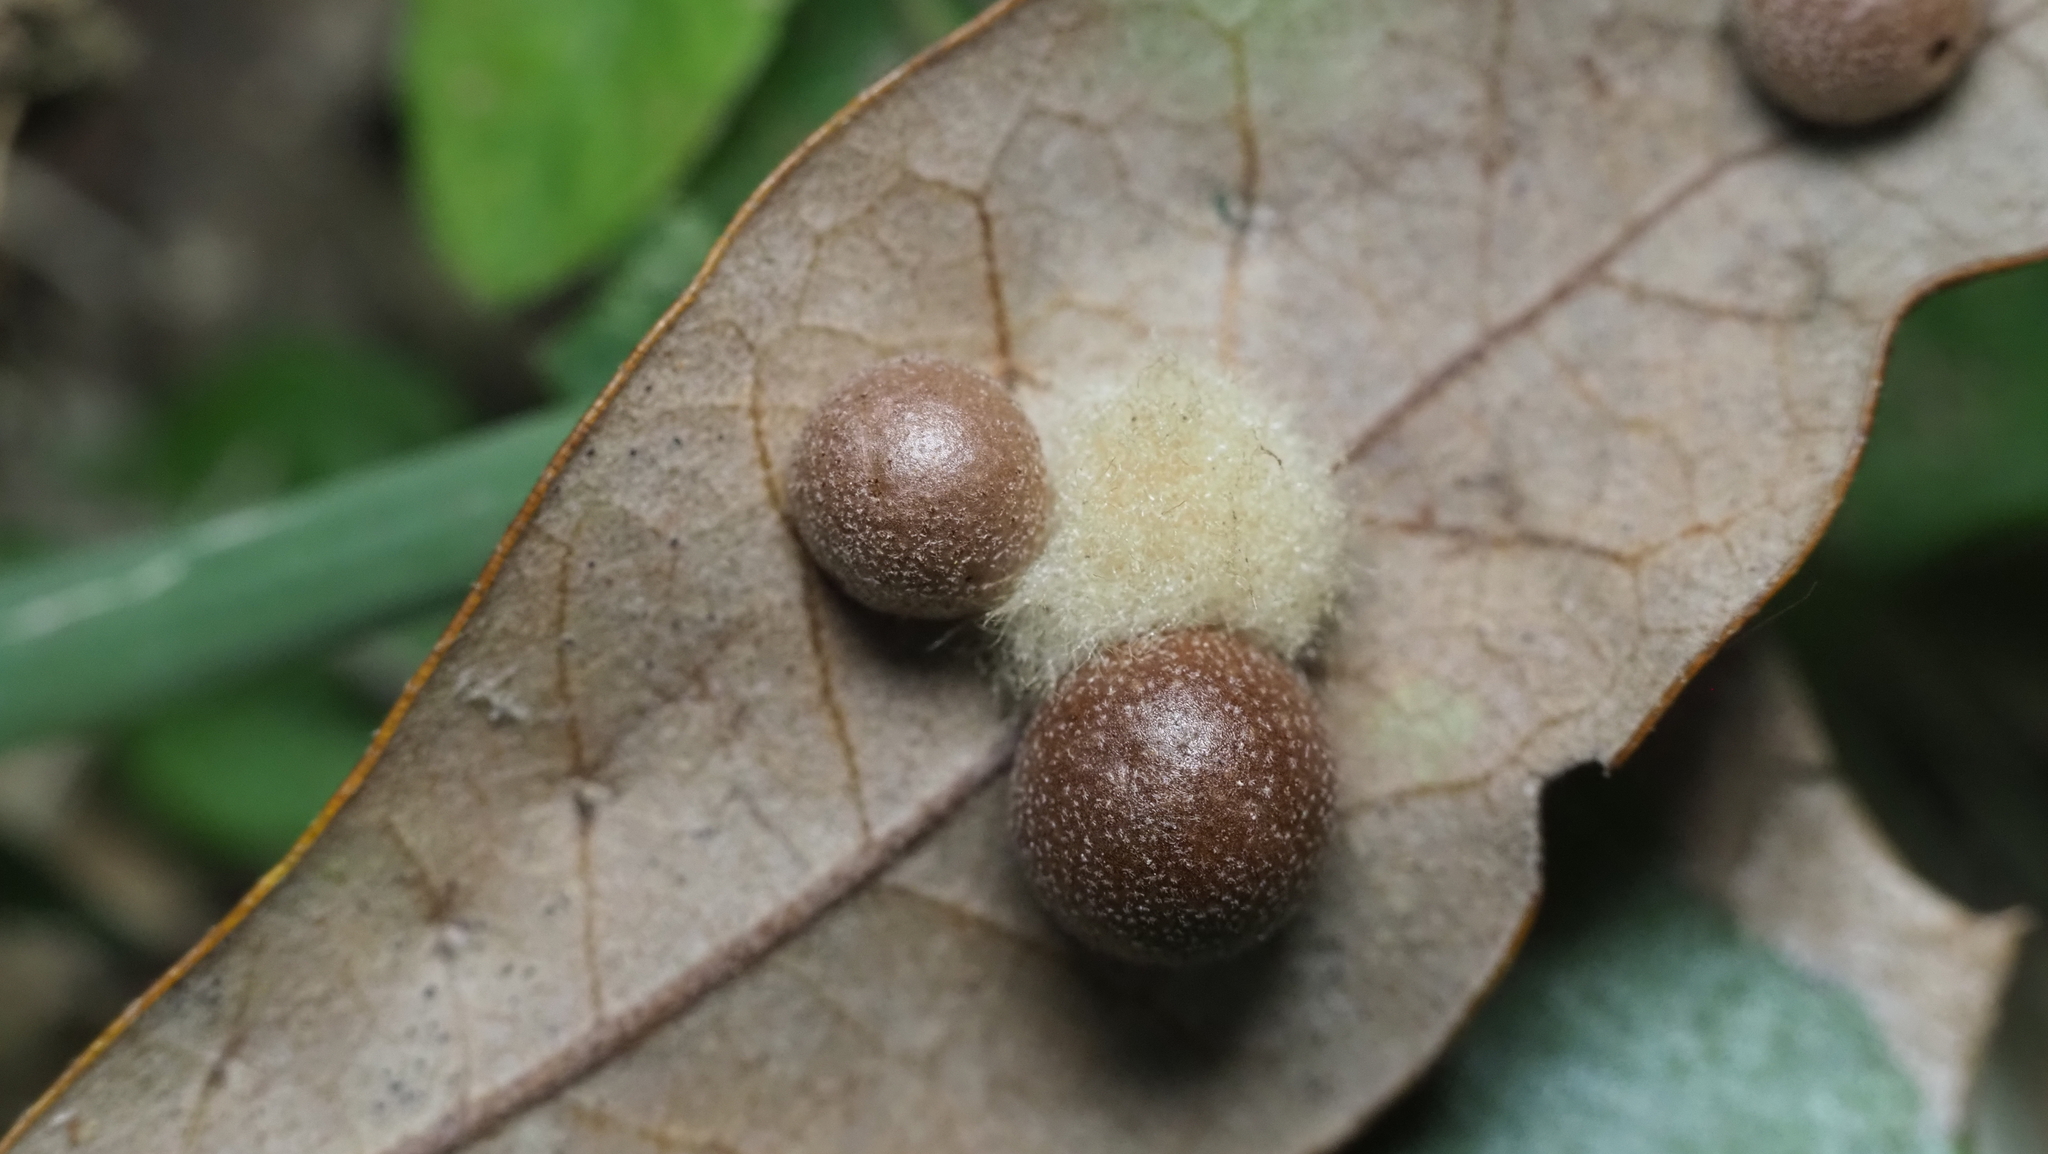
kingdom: Animalia
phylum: Arthropoda
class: Insecta
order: Hymenoptera
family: Cynipidae
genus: Belonocnema
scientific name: Belonocnema kinseyi
